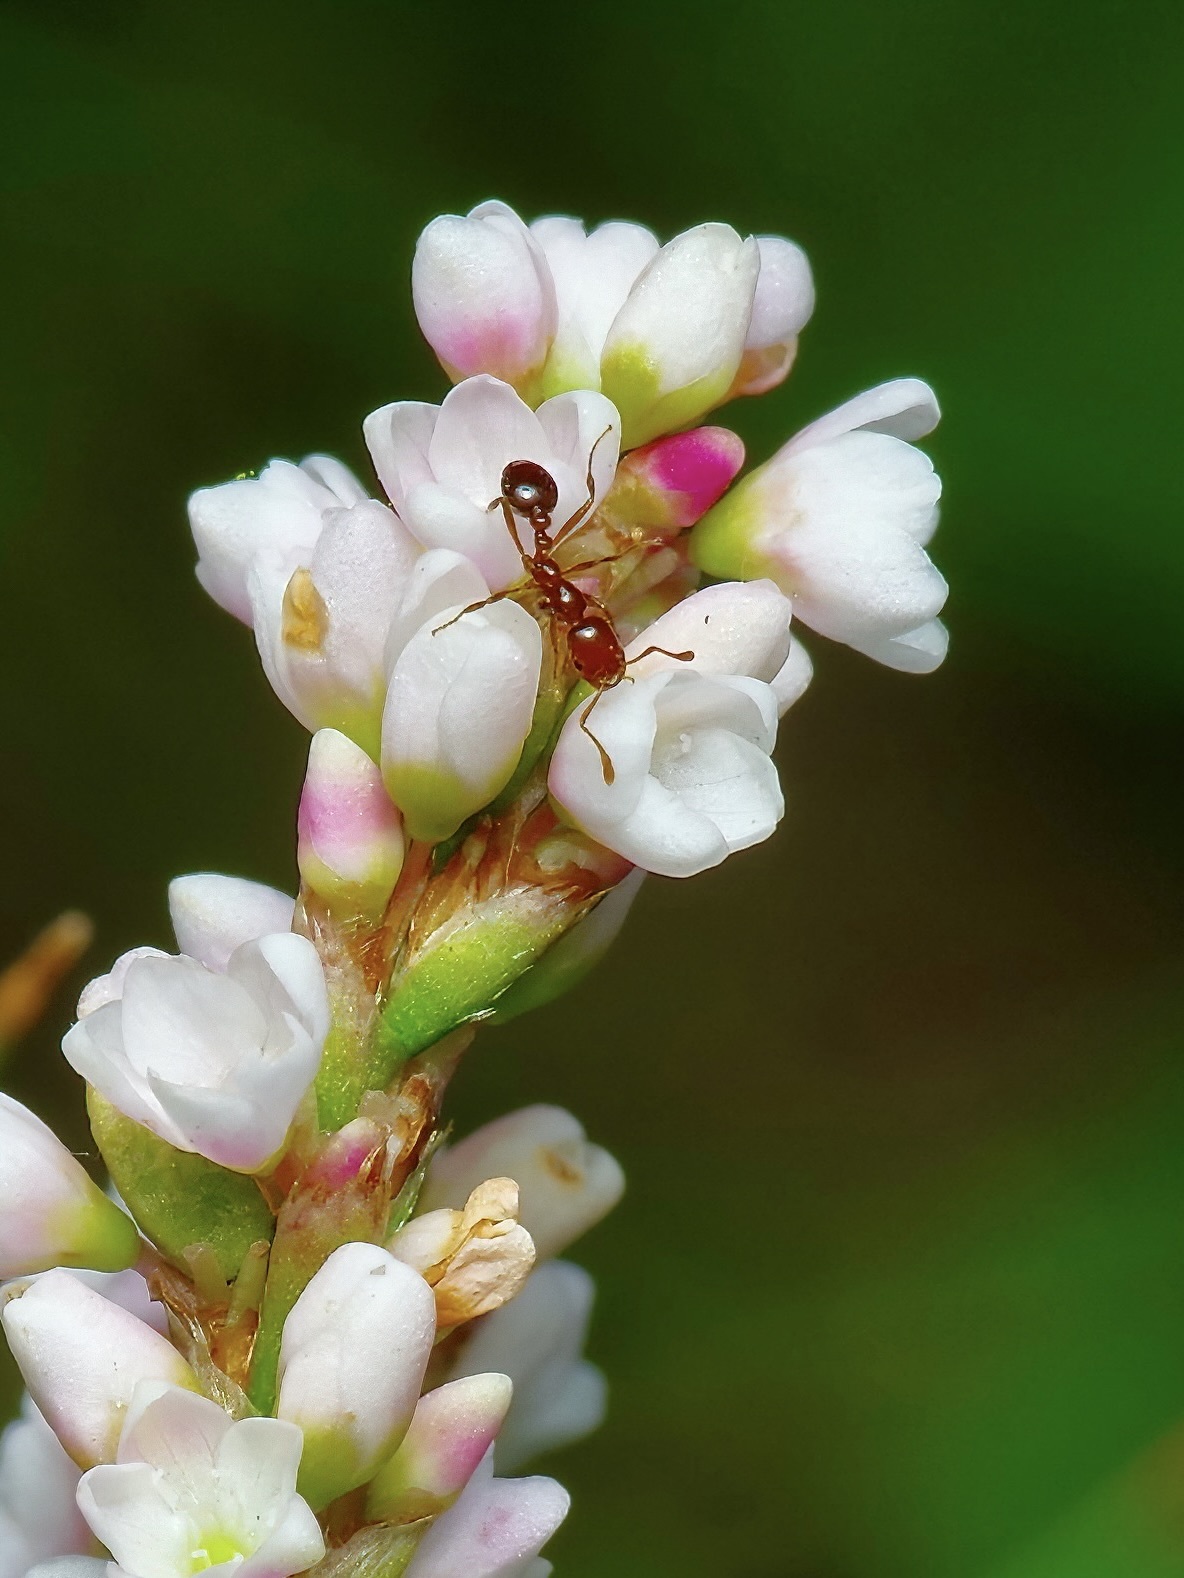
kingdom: Animalia
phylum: Arthropoda
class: Insecta
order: Hymenoptera
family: Formicidae
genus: Solenopsis
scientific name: Solenopsis invicta
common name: Red imported fire ant
